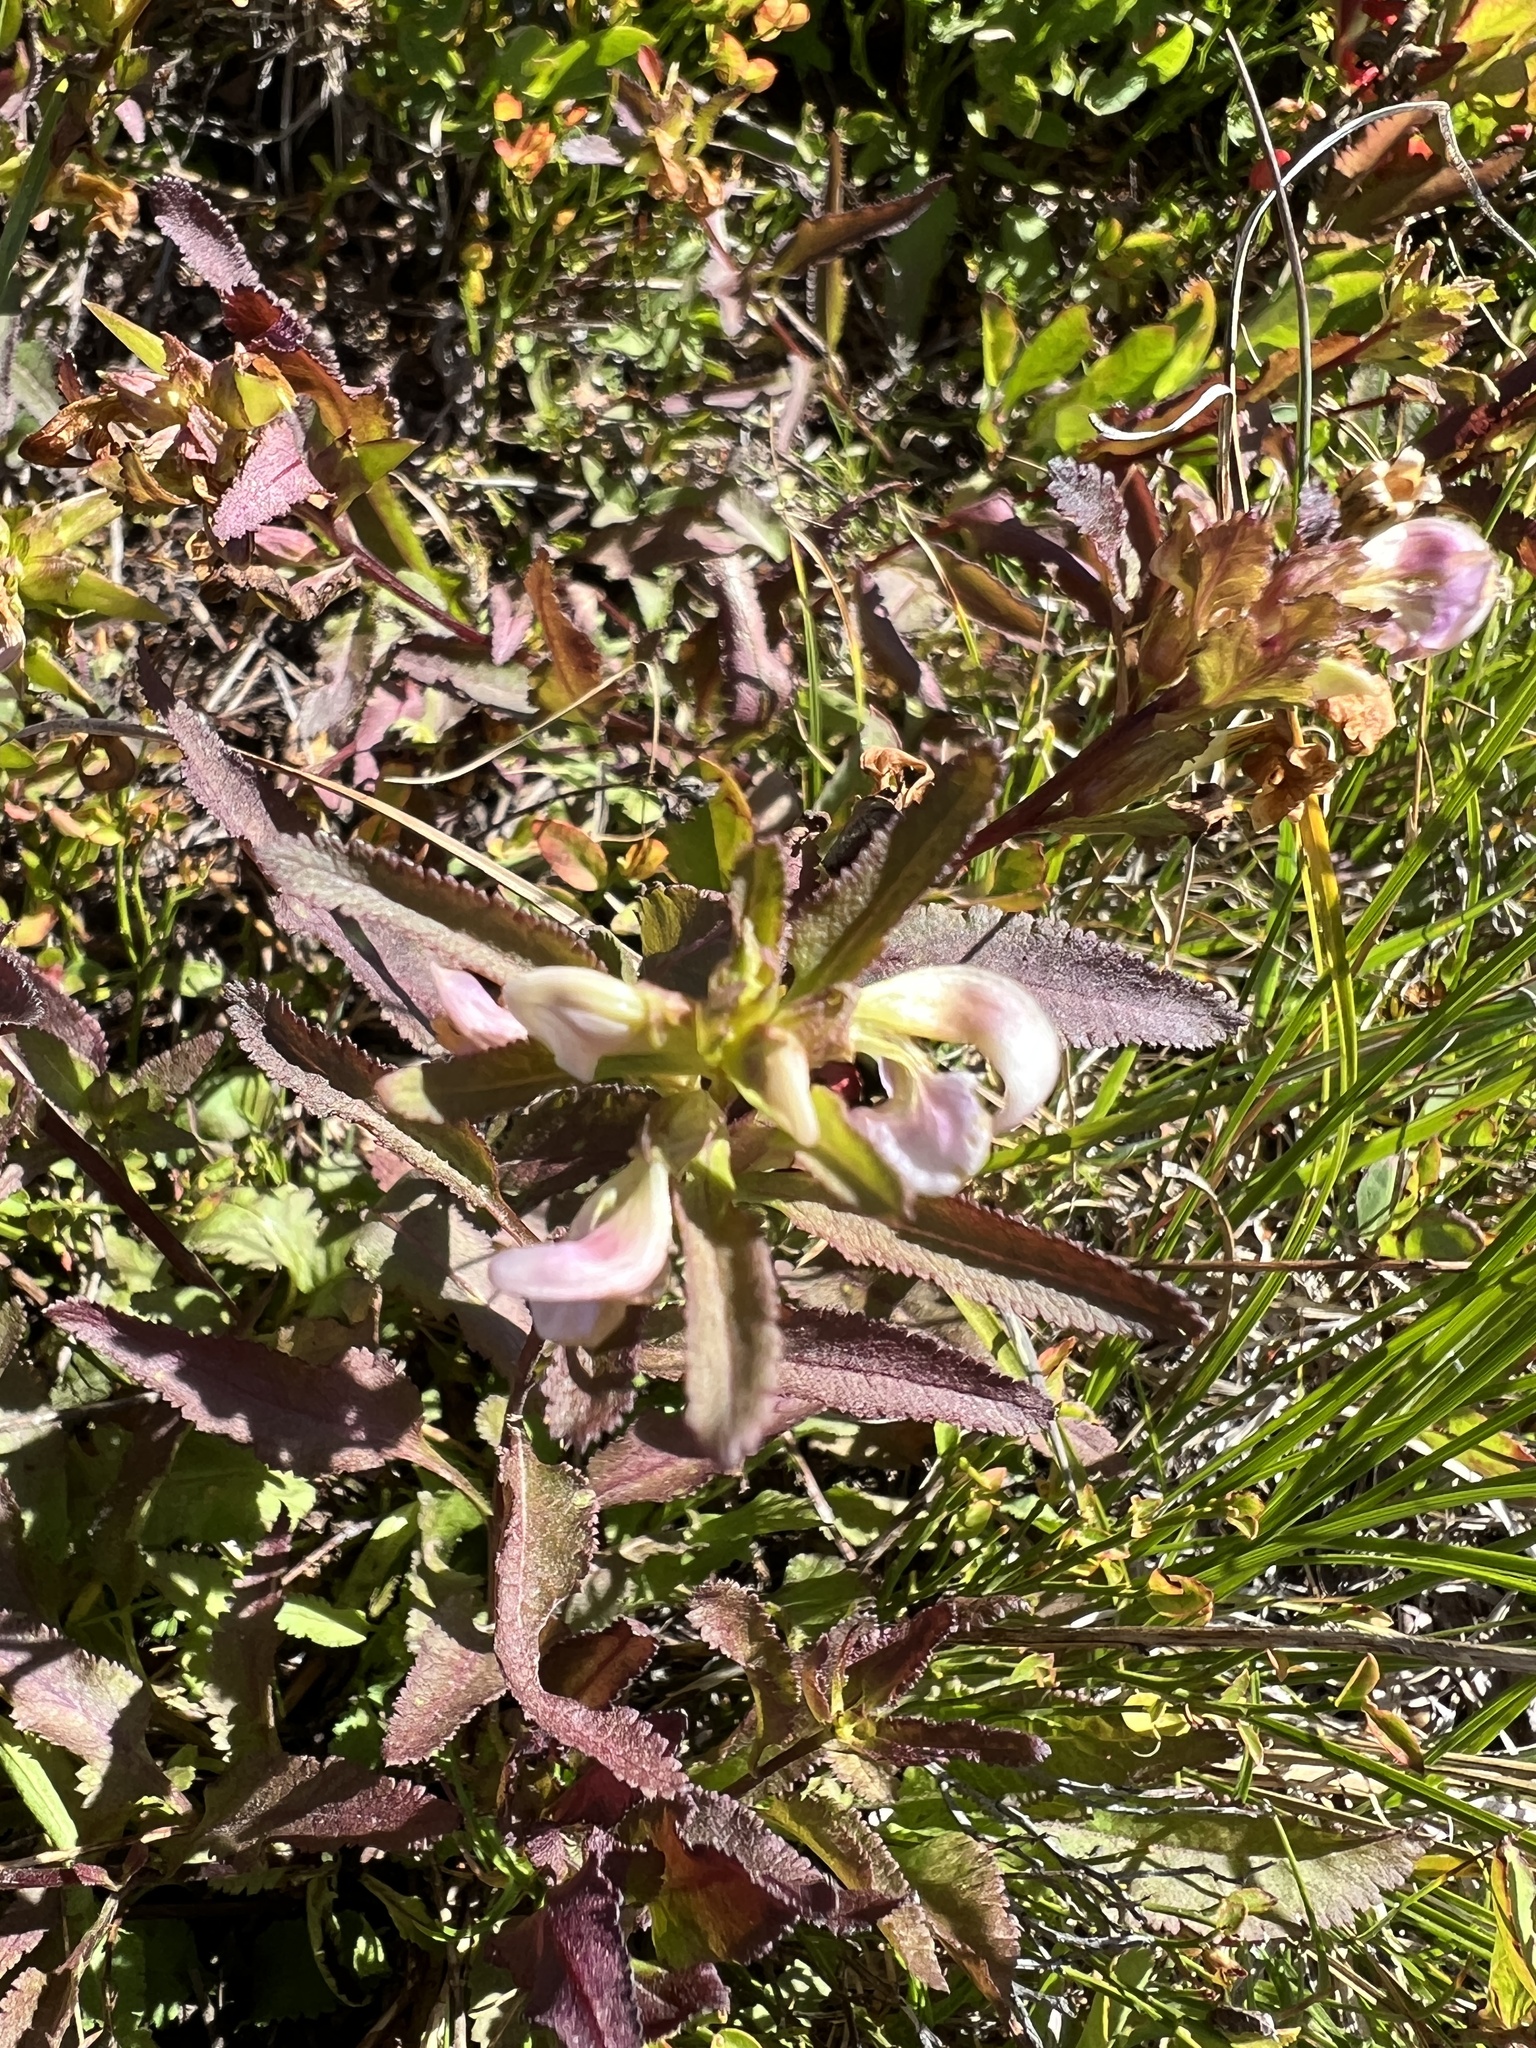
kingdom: Plantae
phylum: Tracheophyta
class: Magnoliopsida
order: Lamiales
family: Orobanchaceae
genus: Pedicularis
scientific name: Pedicularis racemosa
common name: Leafy lousewort
